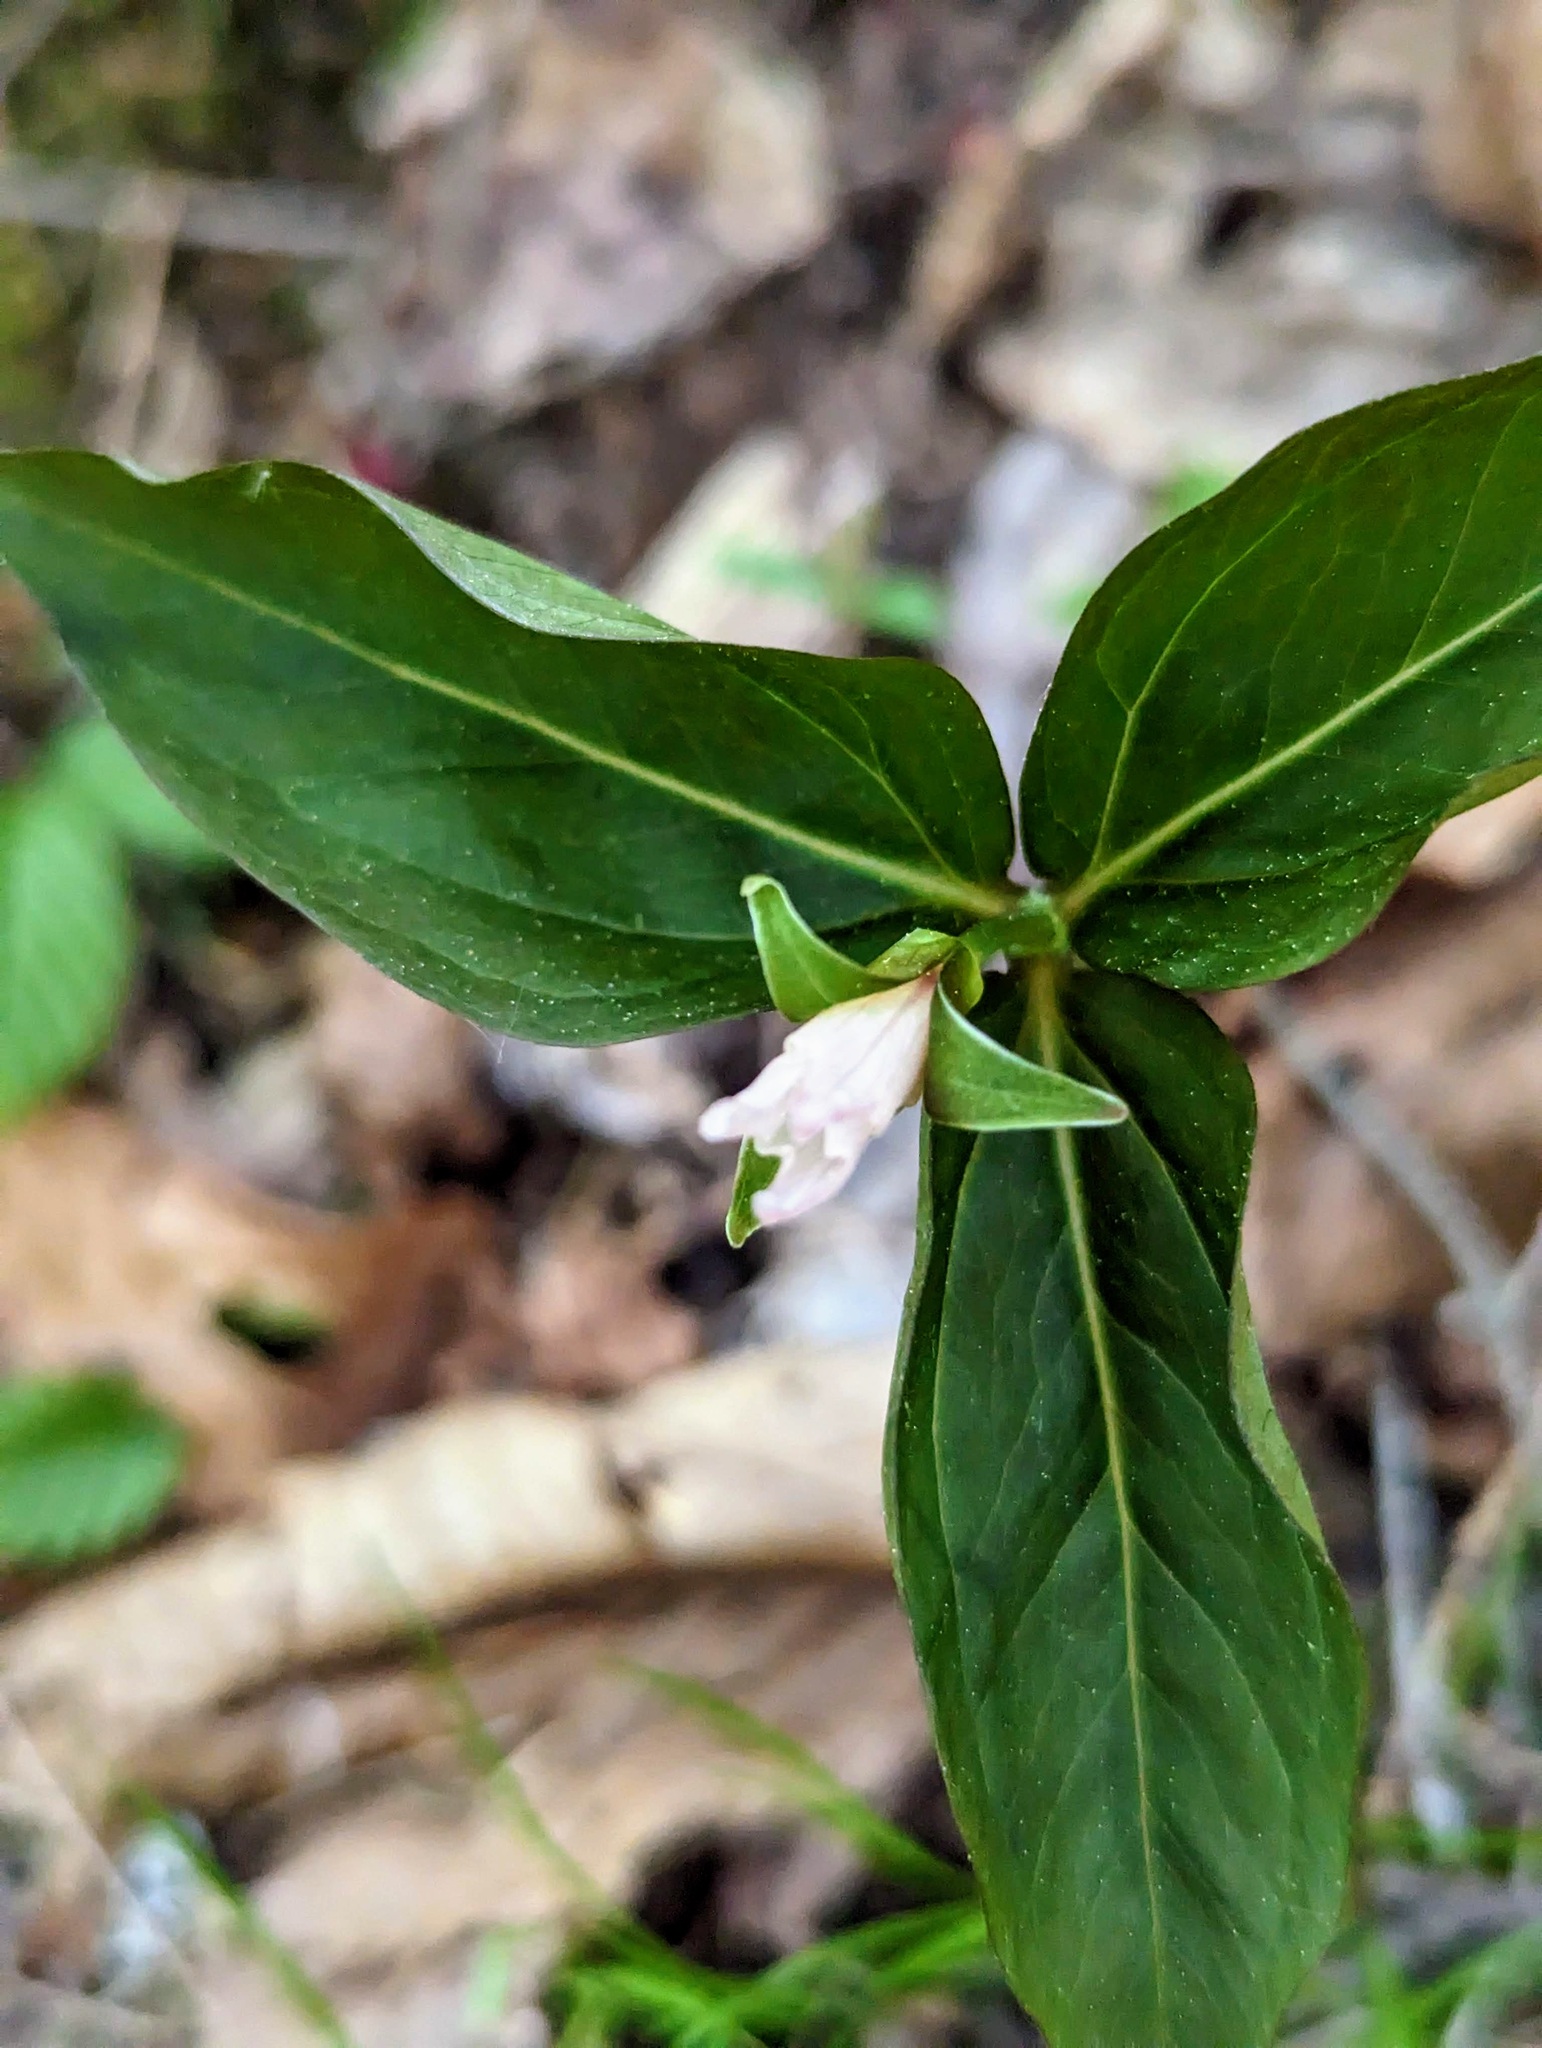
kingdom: Plantae
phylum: Tracheophyta
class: Liliopsida
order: Liliales
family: Melanthiaceae
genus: Trillium
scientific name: Trillium undulatum
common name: Paint trillium
